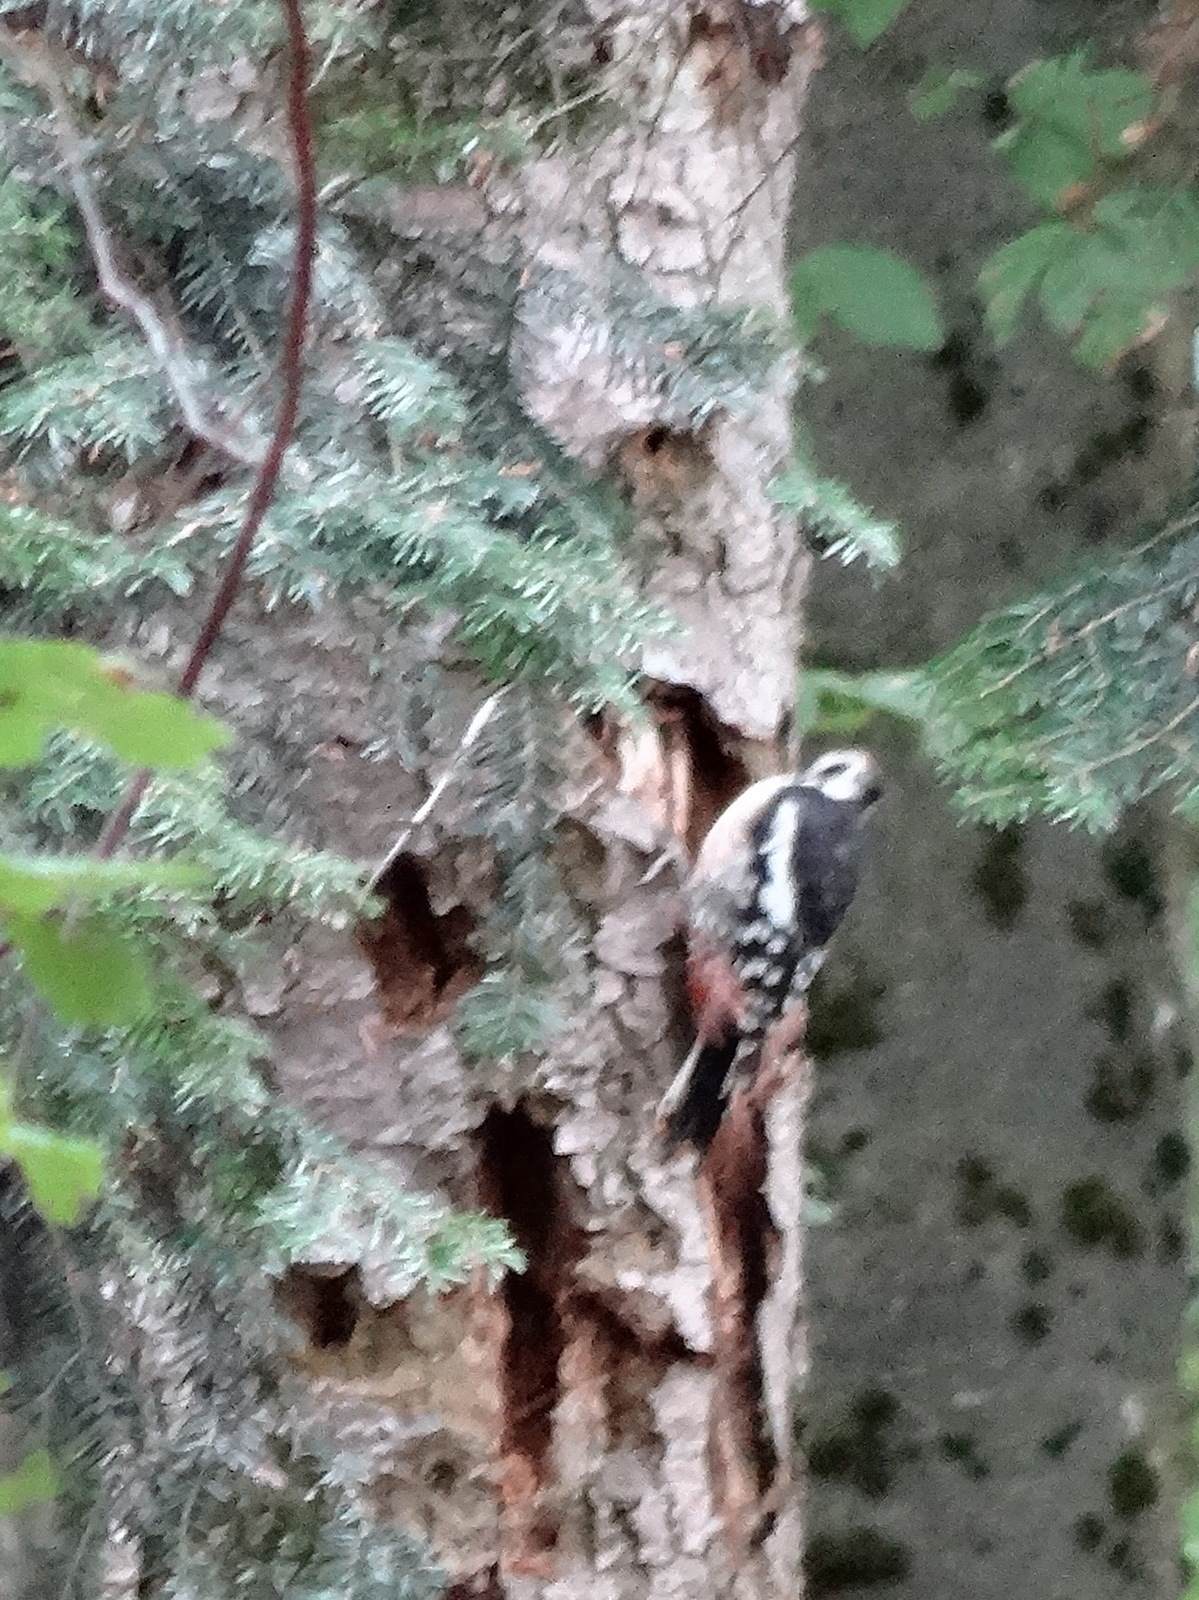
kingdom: Animalia
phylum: Chordata
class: Aves
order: Piciformes
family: Picidae
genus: Dendrocoptes
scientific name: Dendrocoptes medius
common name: Middle spotted woodpecker
